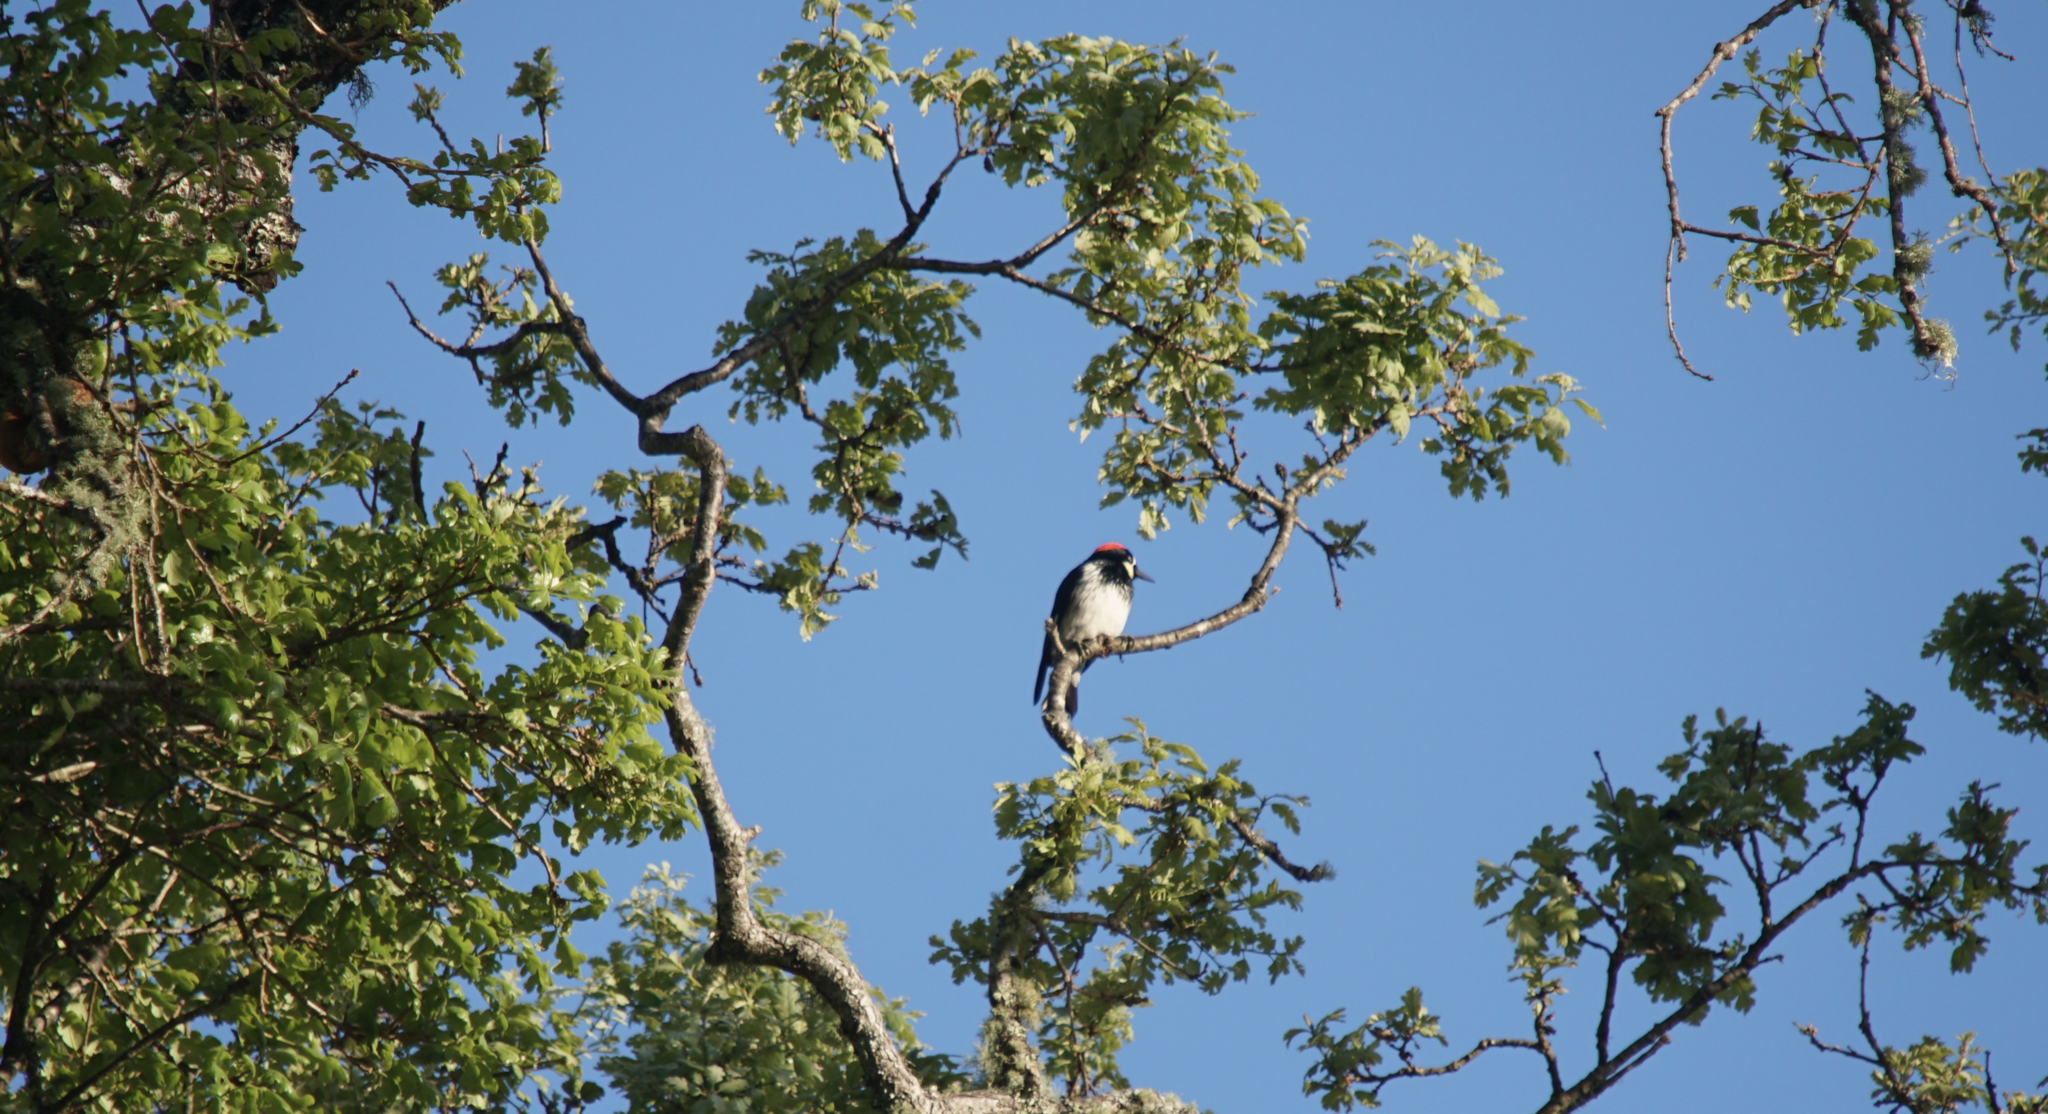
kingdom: Animalia
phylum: Chordata
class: Aves
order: Piciformes
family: Picidae
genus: Melanerpes
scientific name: Melanerpes formicivorus
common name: Acorn woodpecker
